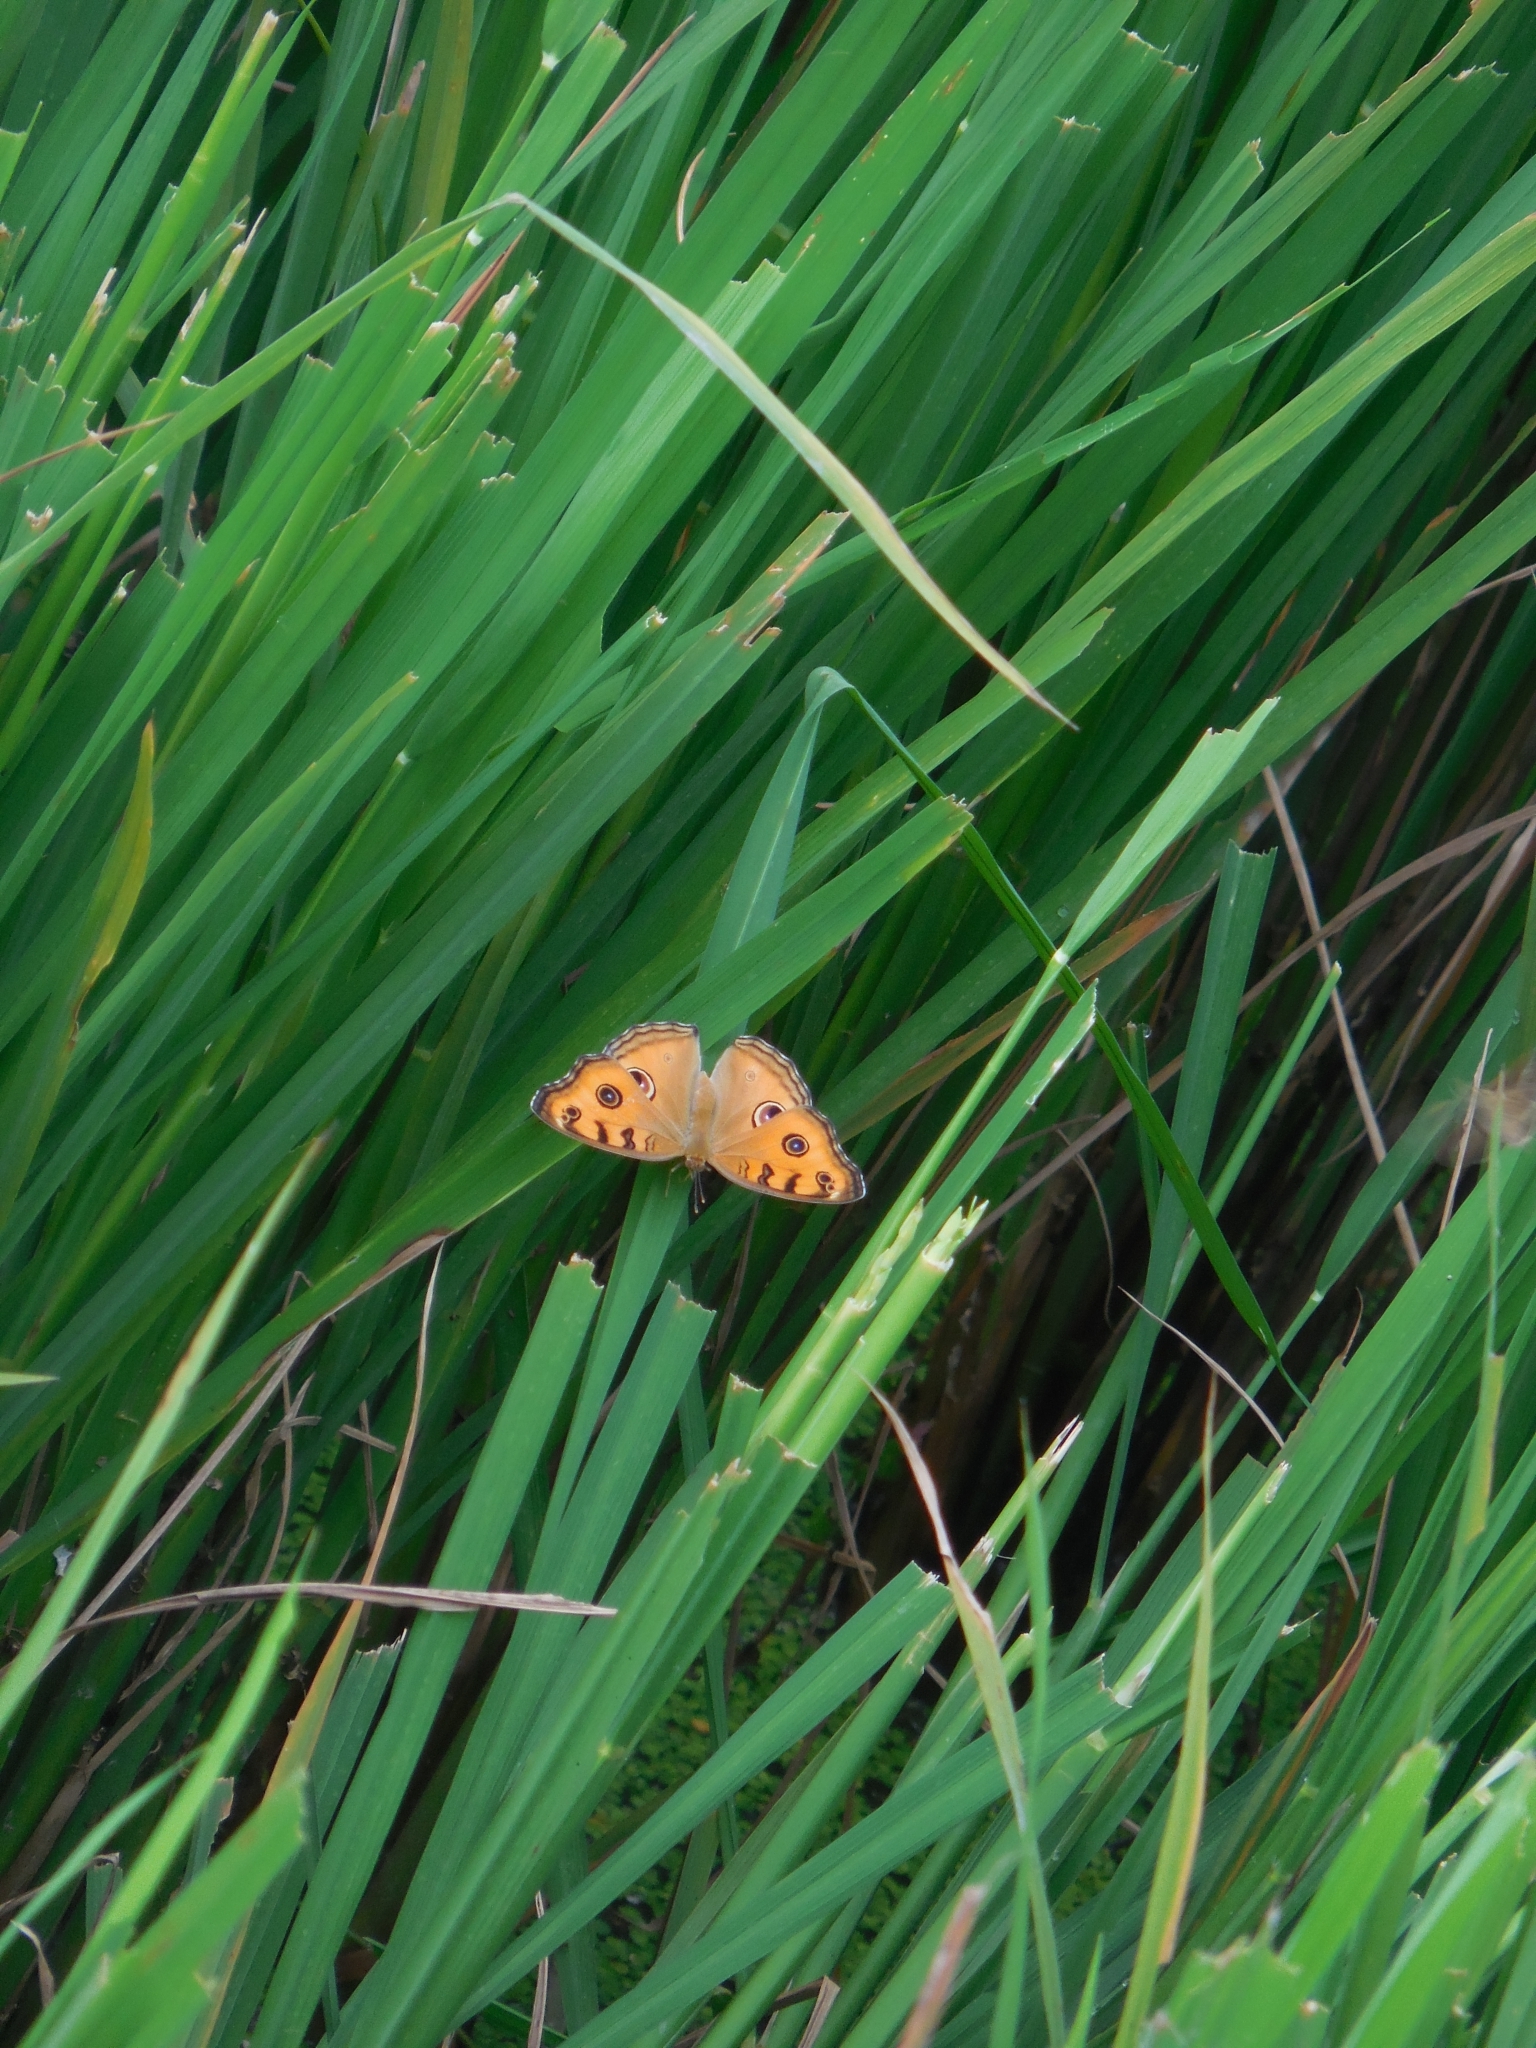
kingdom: Animalia
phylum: Arthropoda
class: Insecta
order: Lepidoptera
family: Nymphalidae
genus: Junonia
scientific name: Junonia almana
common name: Peacock pansy
